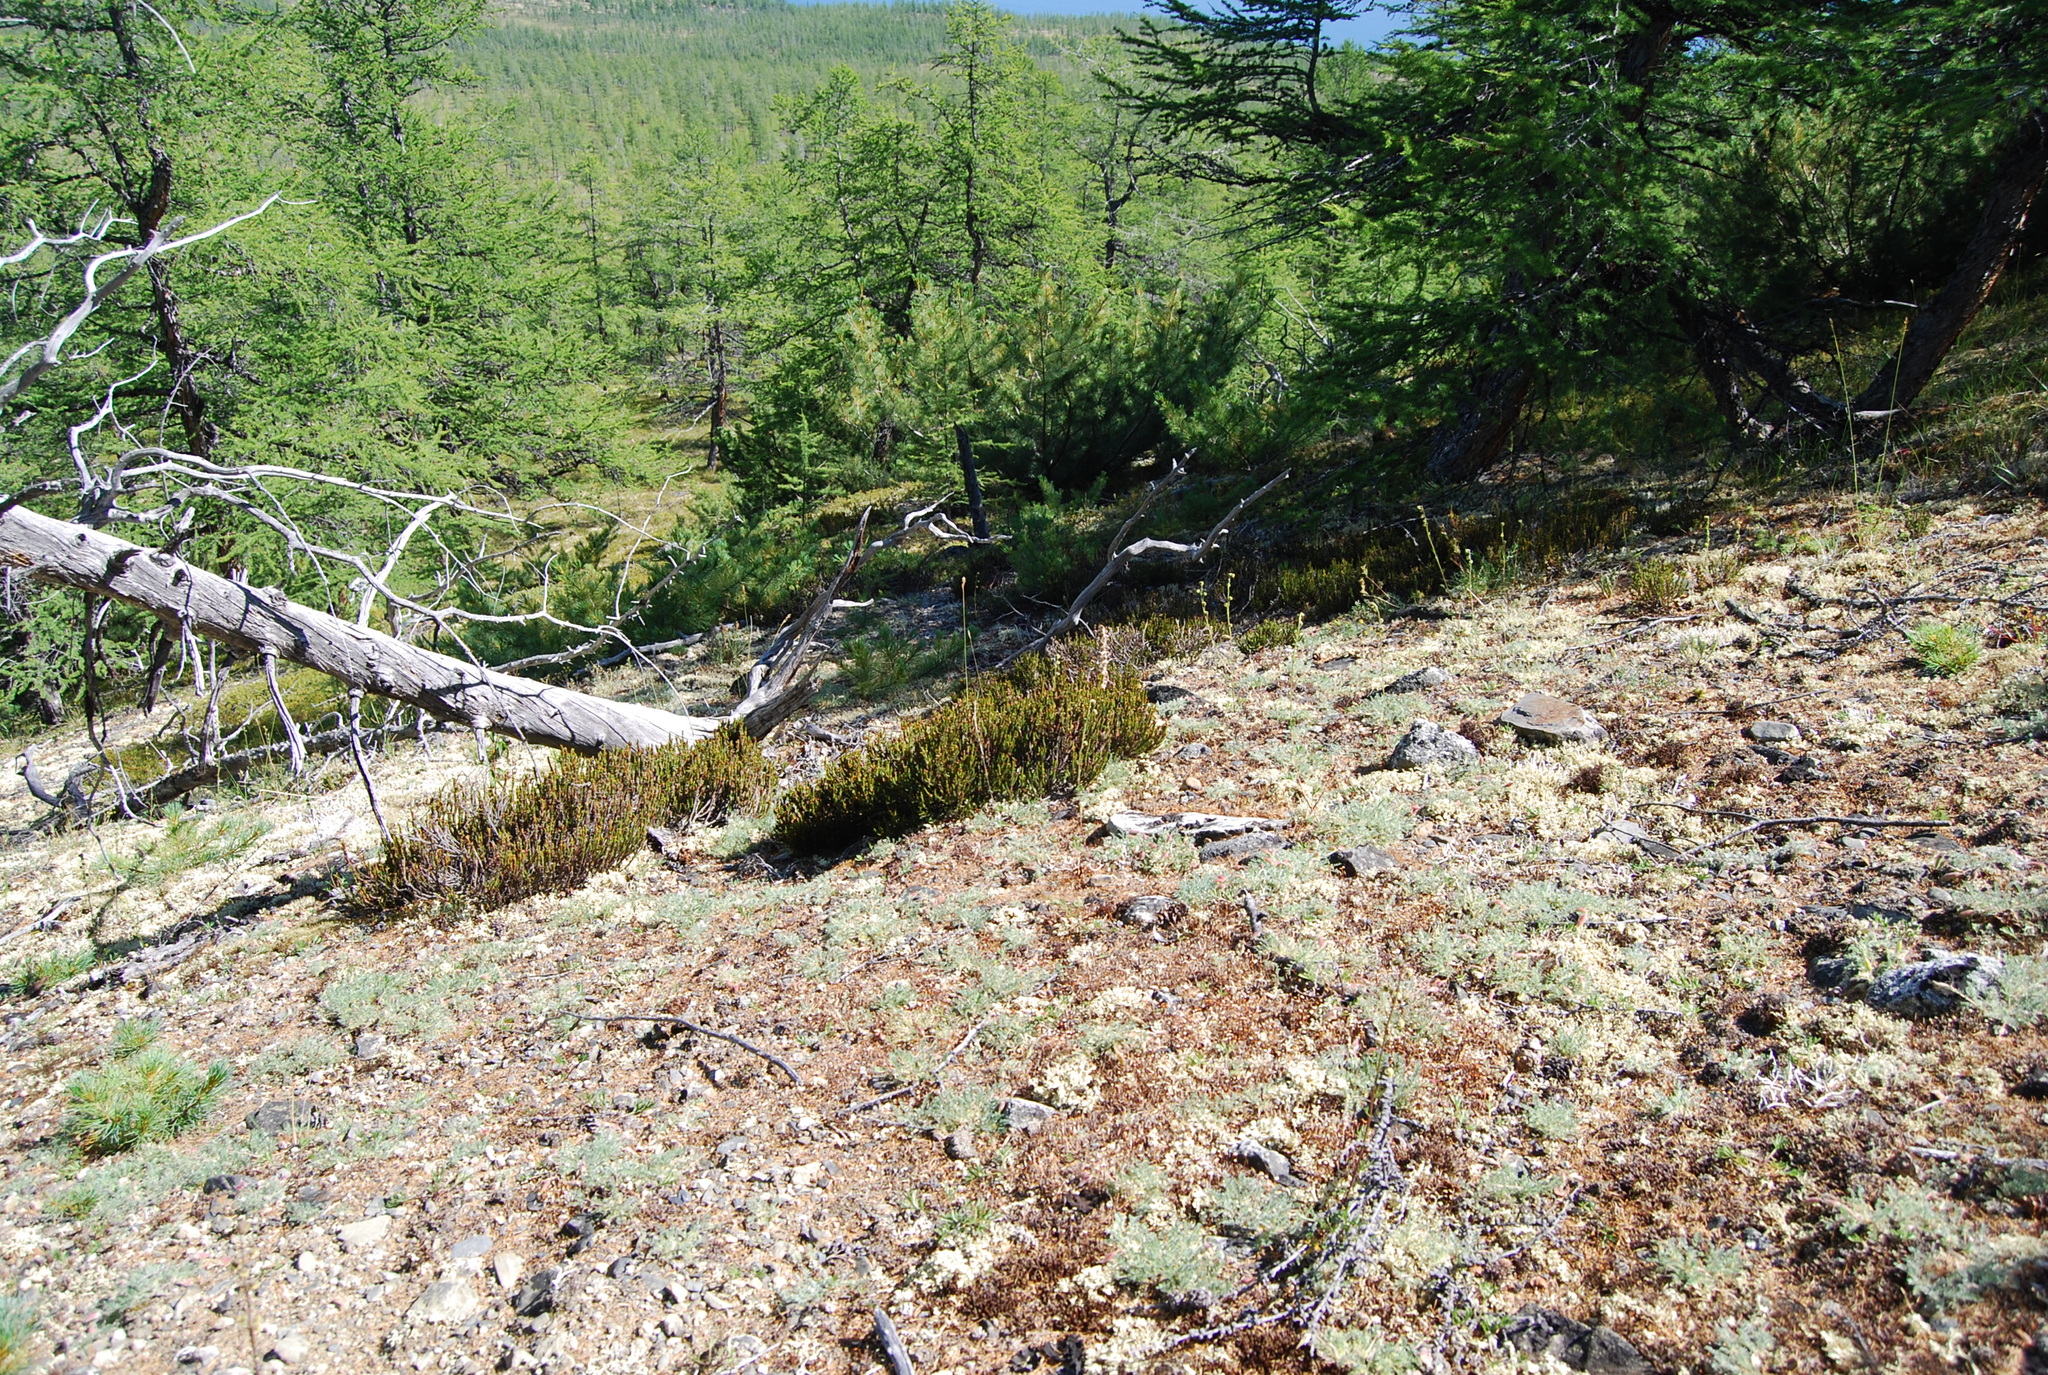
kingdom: Plantae
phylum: Tracheophyta
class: Magnoliopsida
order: Fabales
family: Fabaceae
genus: Oxytropis
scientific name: Oxytropis susumanica
